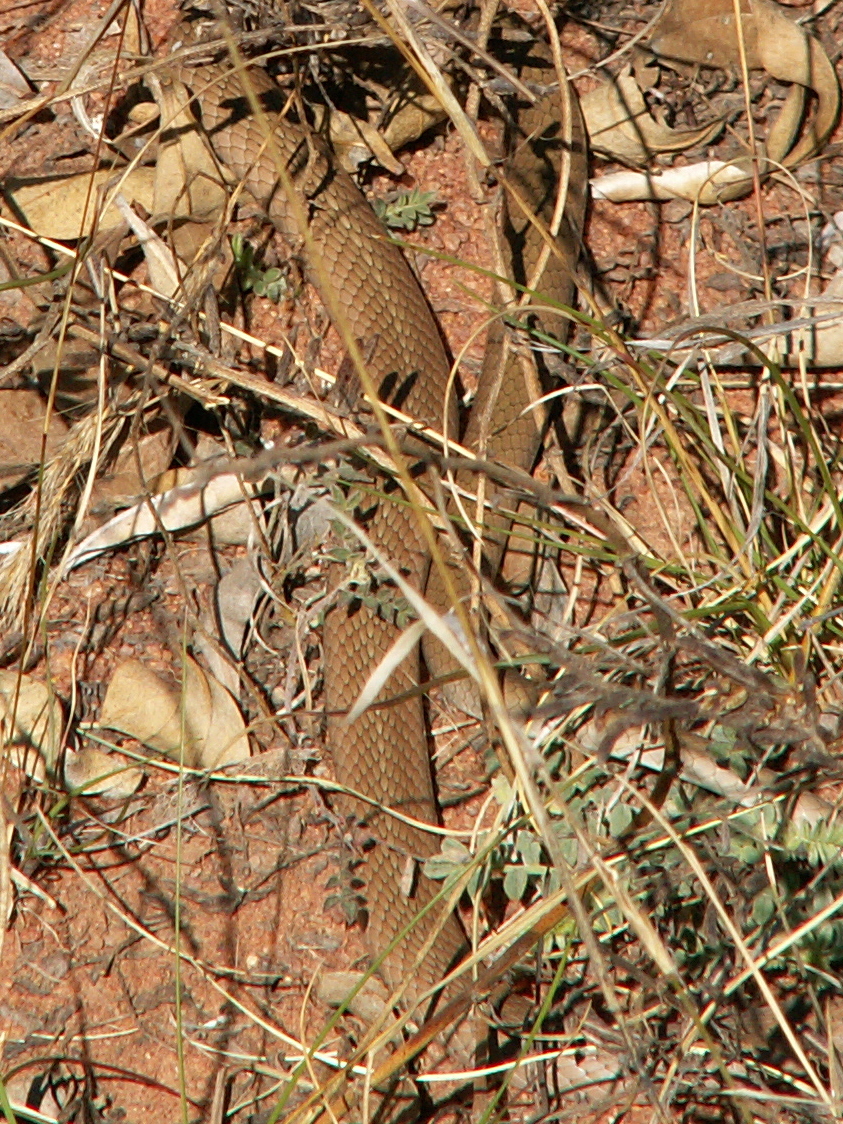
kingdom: Animalia
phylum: Chordata
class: Squamata
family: Psammophiidae
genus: Psammophis
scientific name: Psammophis brevirostris
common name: Short-snouted grass snake
